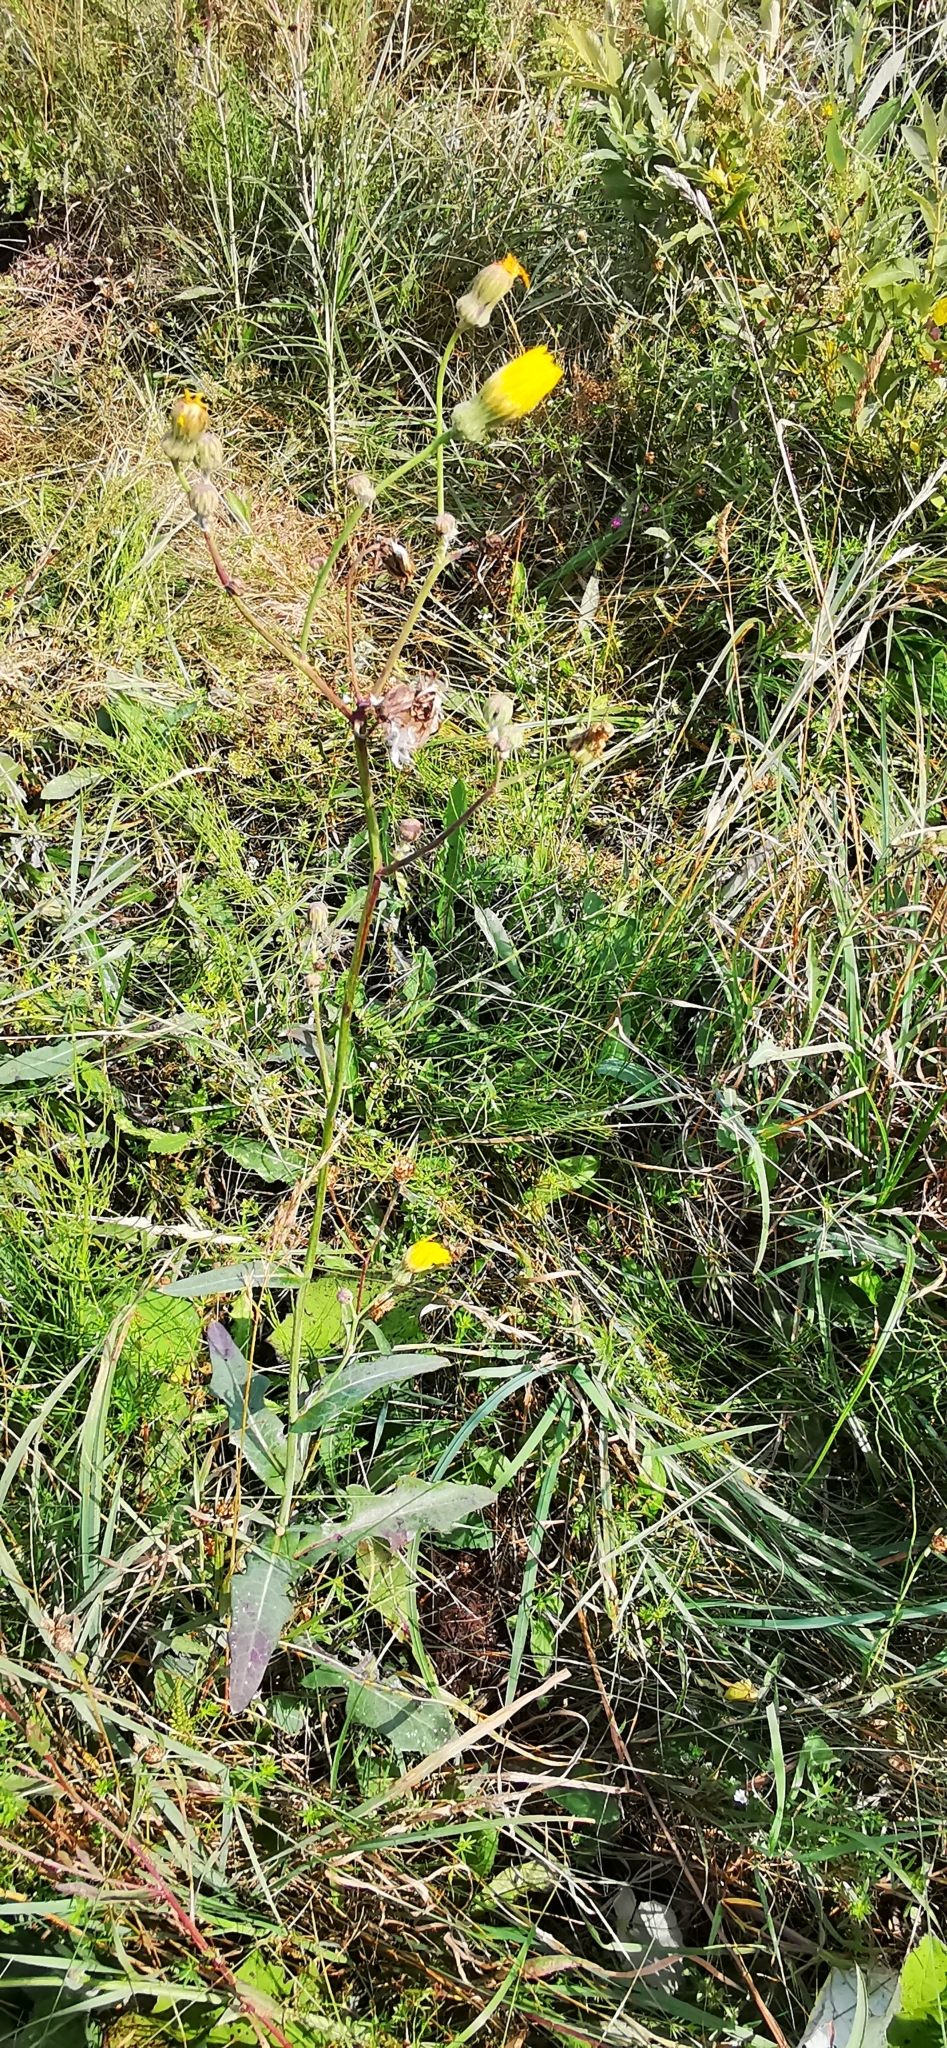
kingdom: Plantae
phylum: Tracheophyta
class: Magnoliopsida
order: Asterales
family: Asteraceae
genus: Sonchus
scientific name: Sonchus arvensis
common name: Perennial sow-thistle
